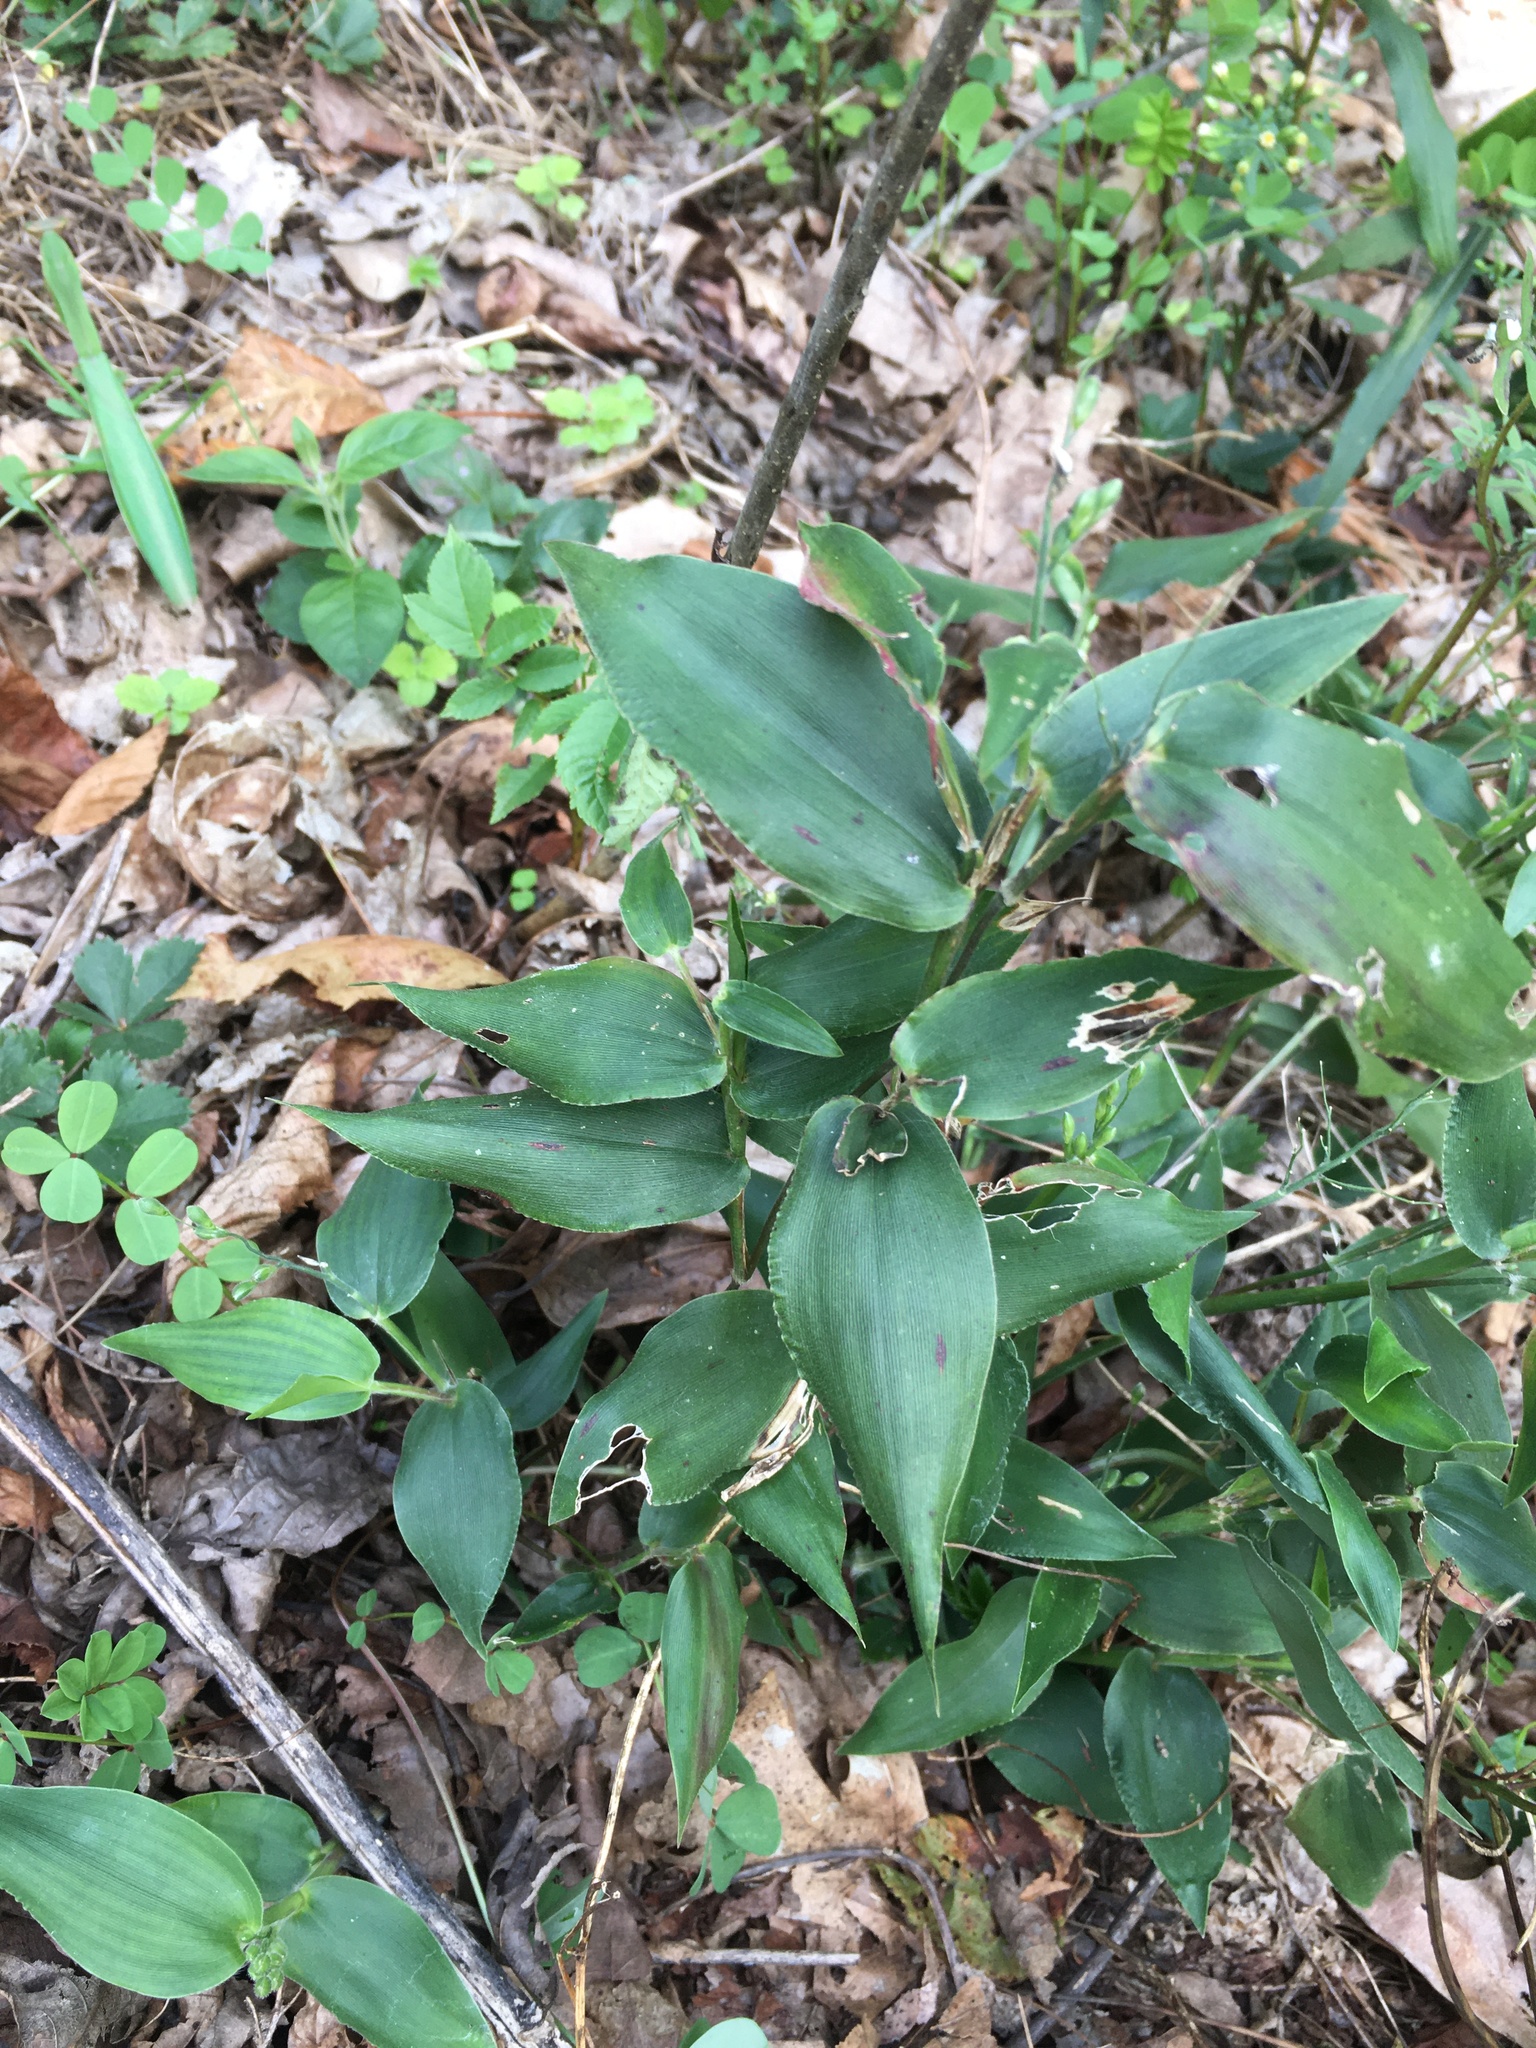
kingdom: Plantae
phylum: Tracheophyta
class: Liliopsida
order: Poales
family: Poaceae
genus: Dichanthelium
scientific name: Dichanthelium boscii
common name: Bosc's panic grass
